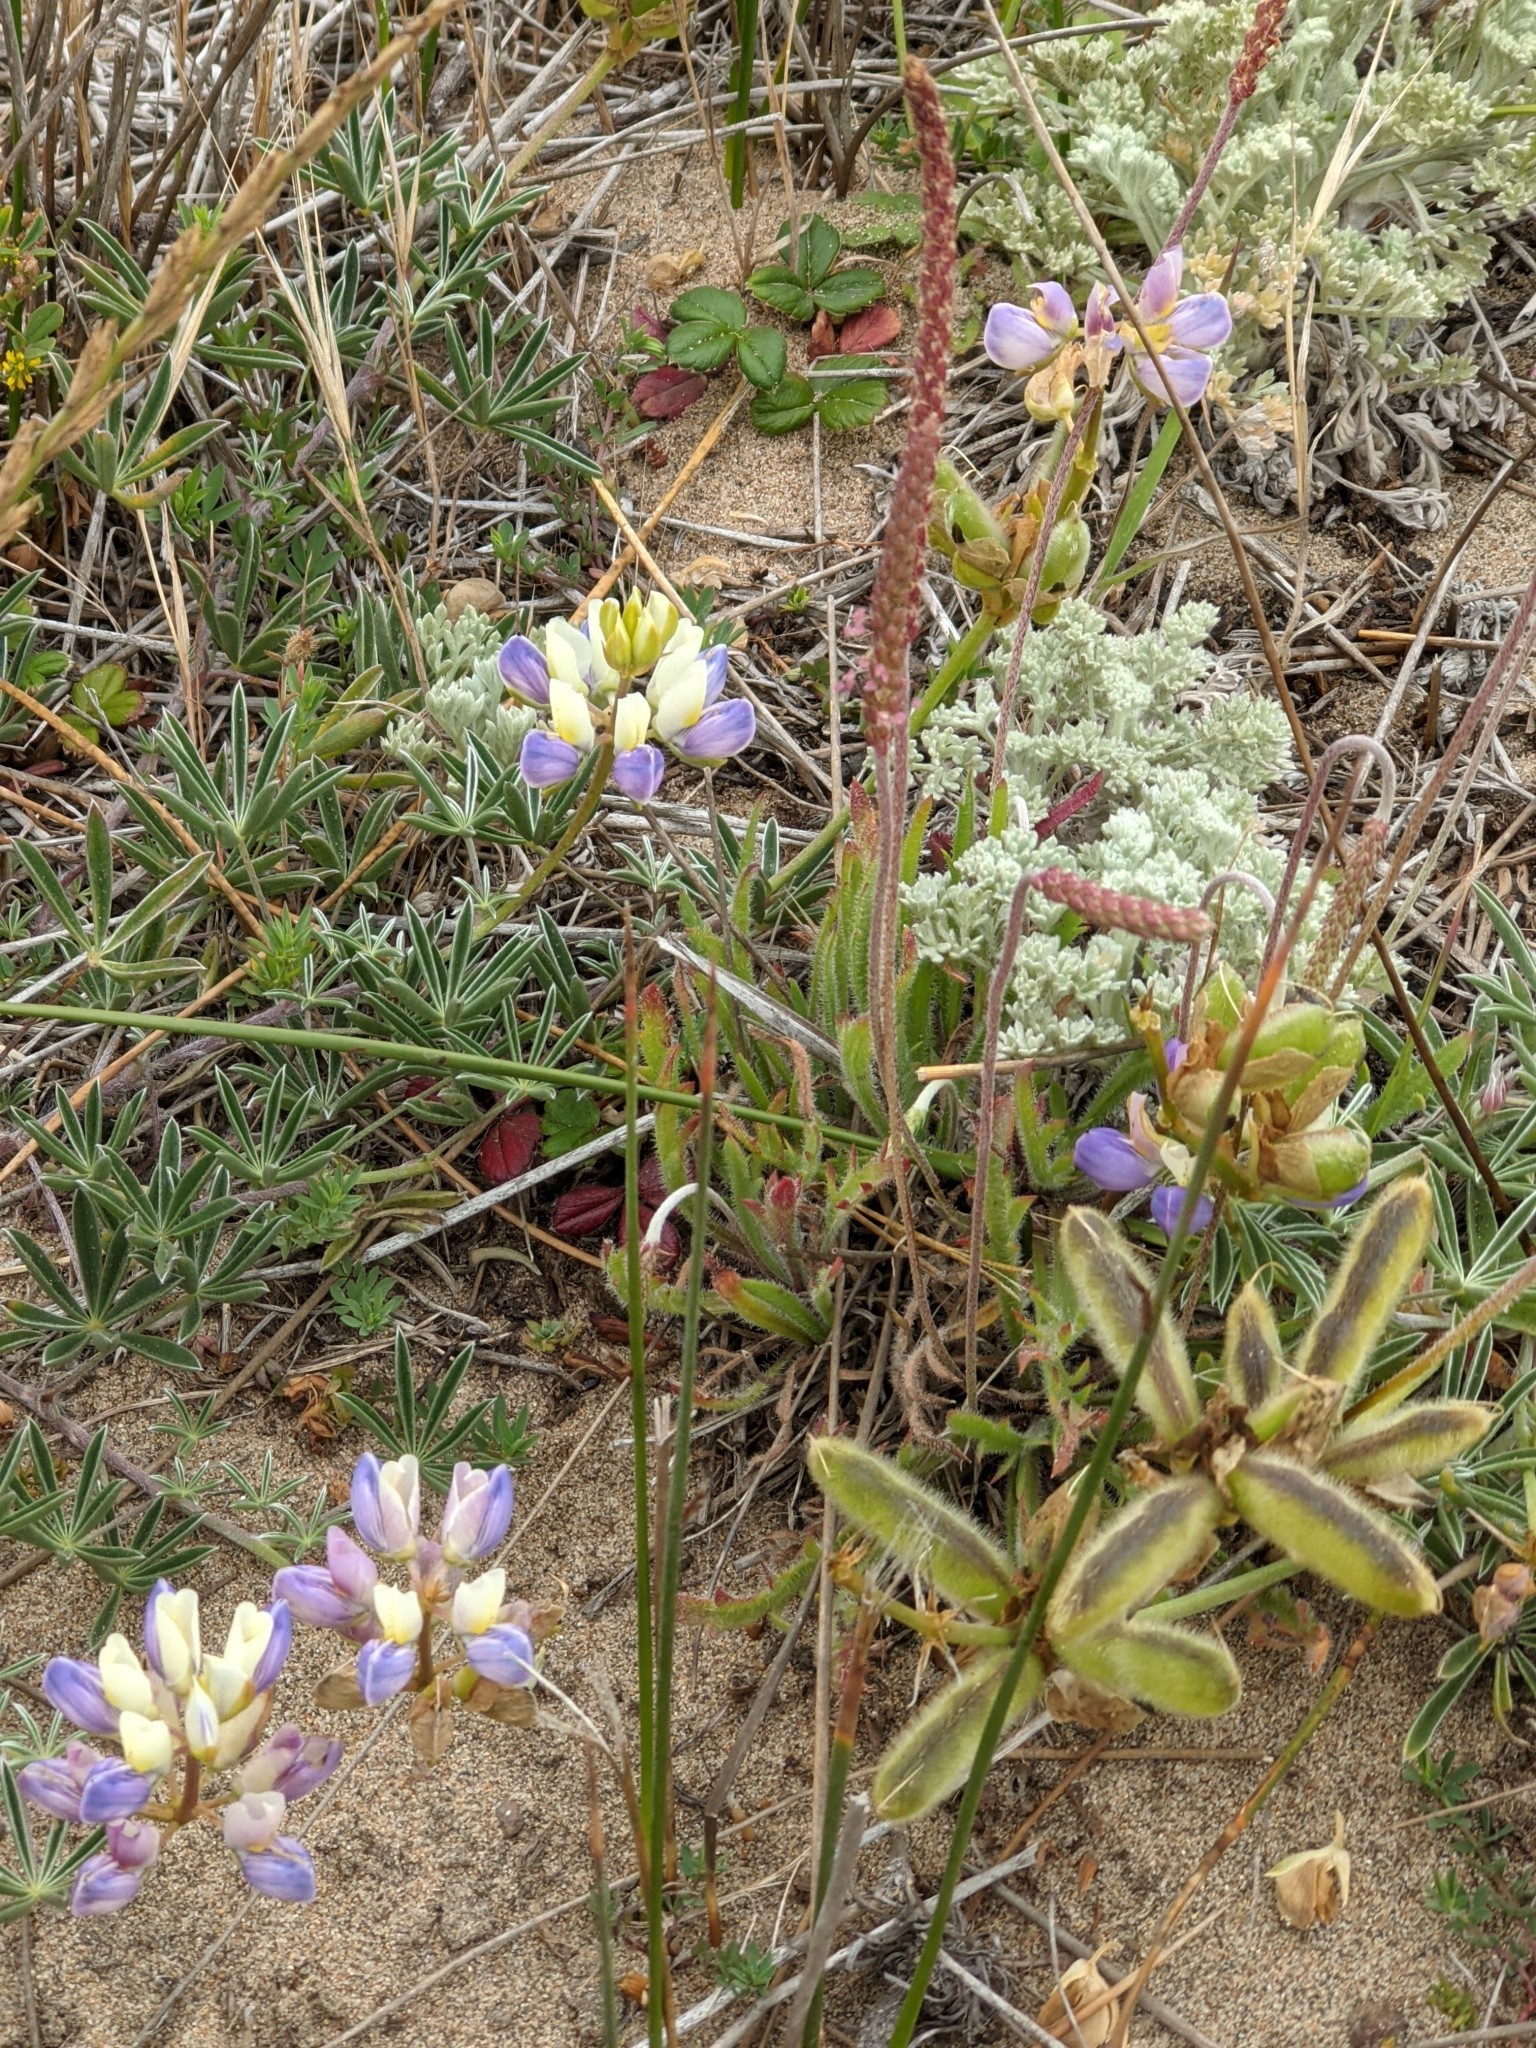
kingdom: Plantae
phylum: Tracheophyta
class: Magnoliopsida
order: Fabales
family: Fabaceae
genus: Lupinus
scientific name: Lupinus variicolor
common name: Lindley's varied lupine
